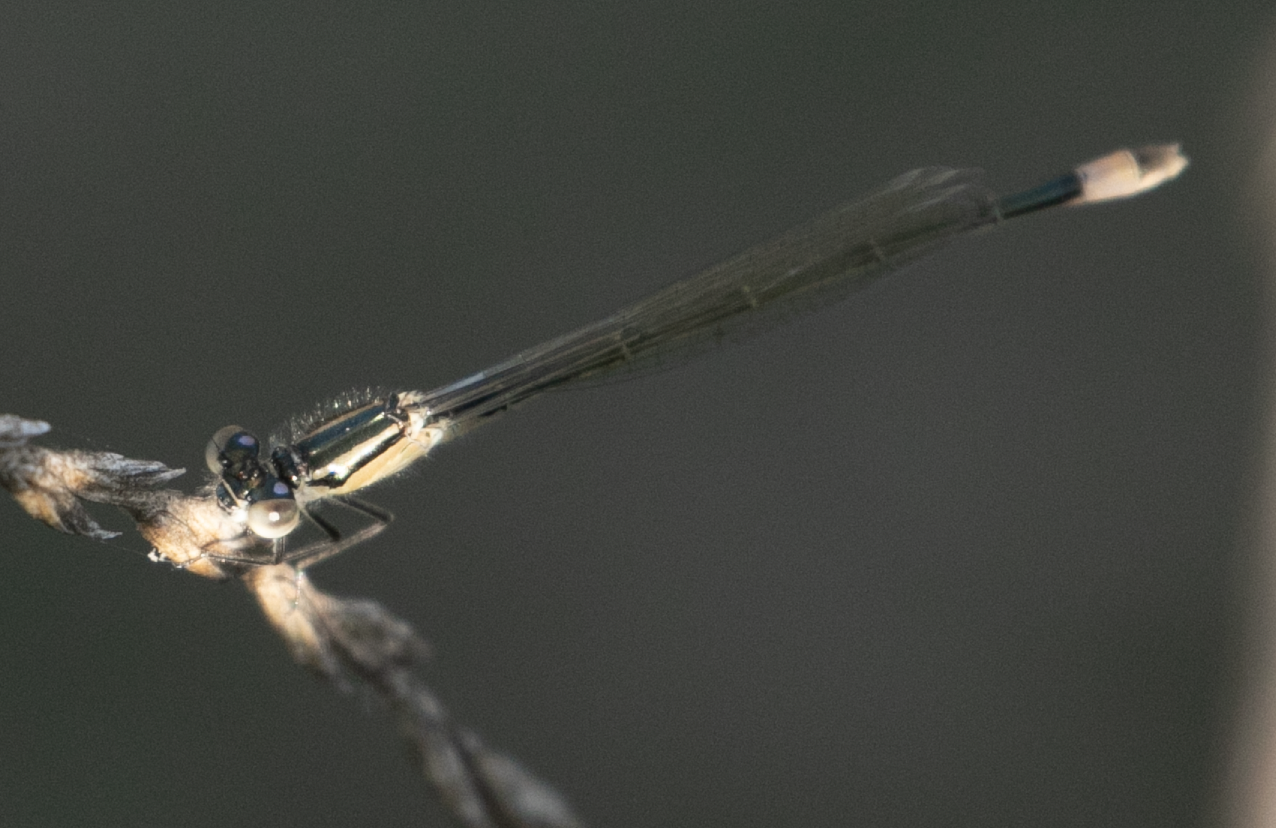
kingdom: Animalia
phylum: Arthropoda
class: Insecta
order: Odonata
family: Coenagrionidae
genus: Ischnura
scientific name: Ischnura elegans
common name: Blue-tailed damselfly
